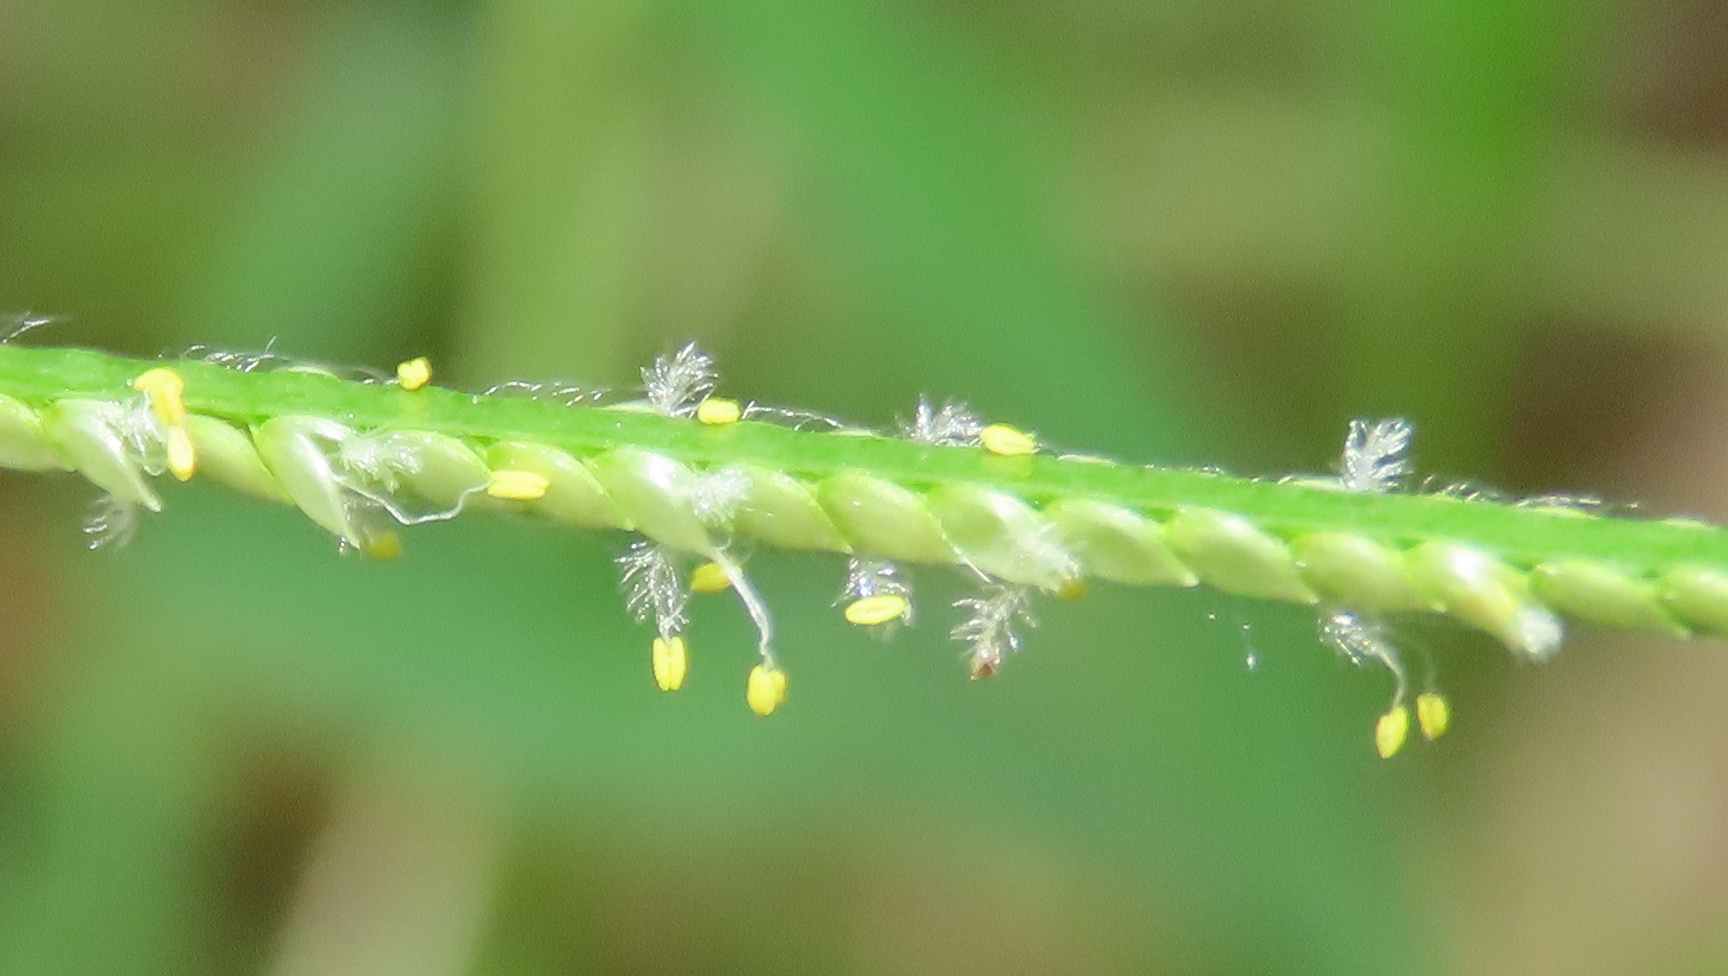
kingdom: Plantae
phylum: Tracheophyta
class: Liliopsida
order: Poales
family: Poaceae
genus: Paspalum
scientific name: Paspalum conjugatum
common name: Hilograss
